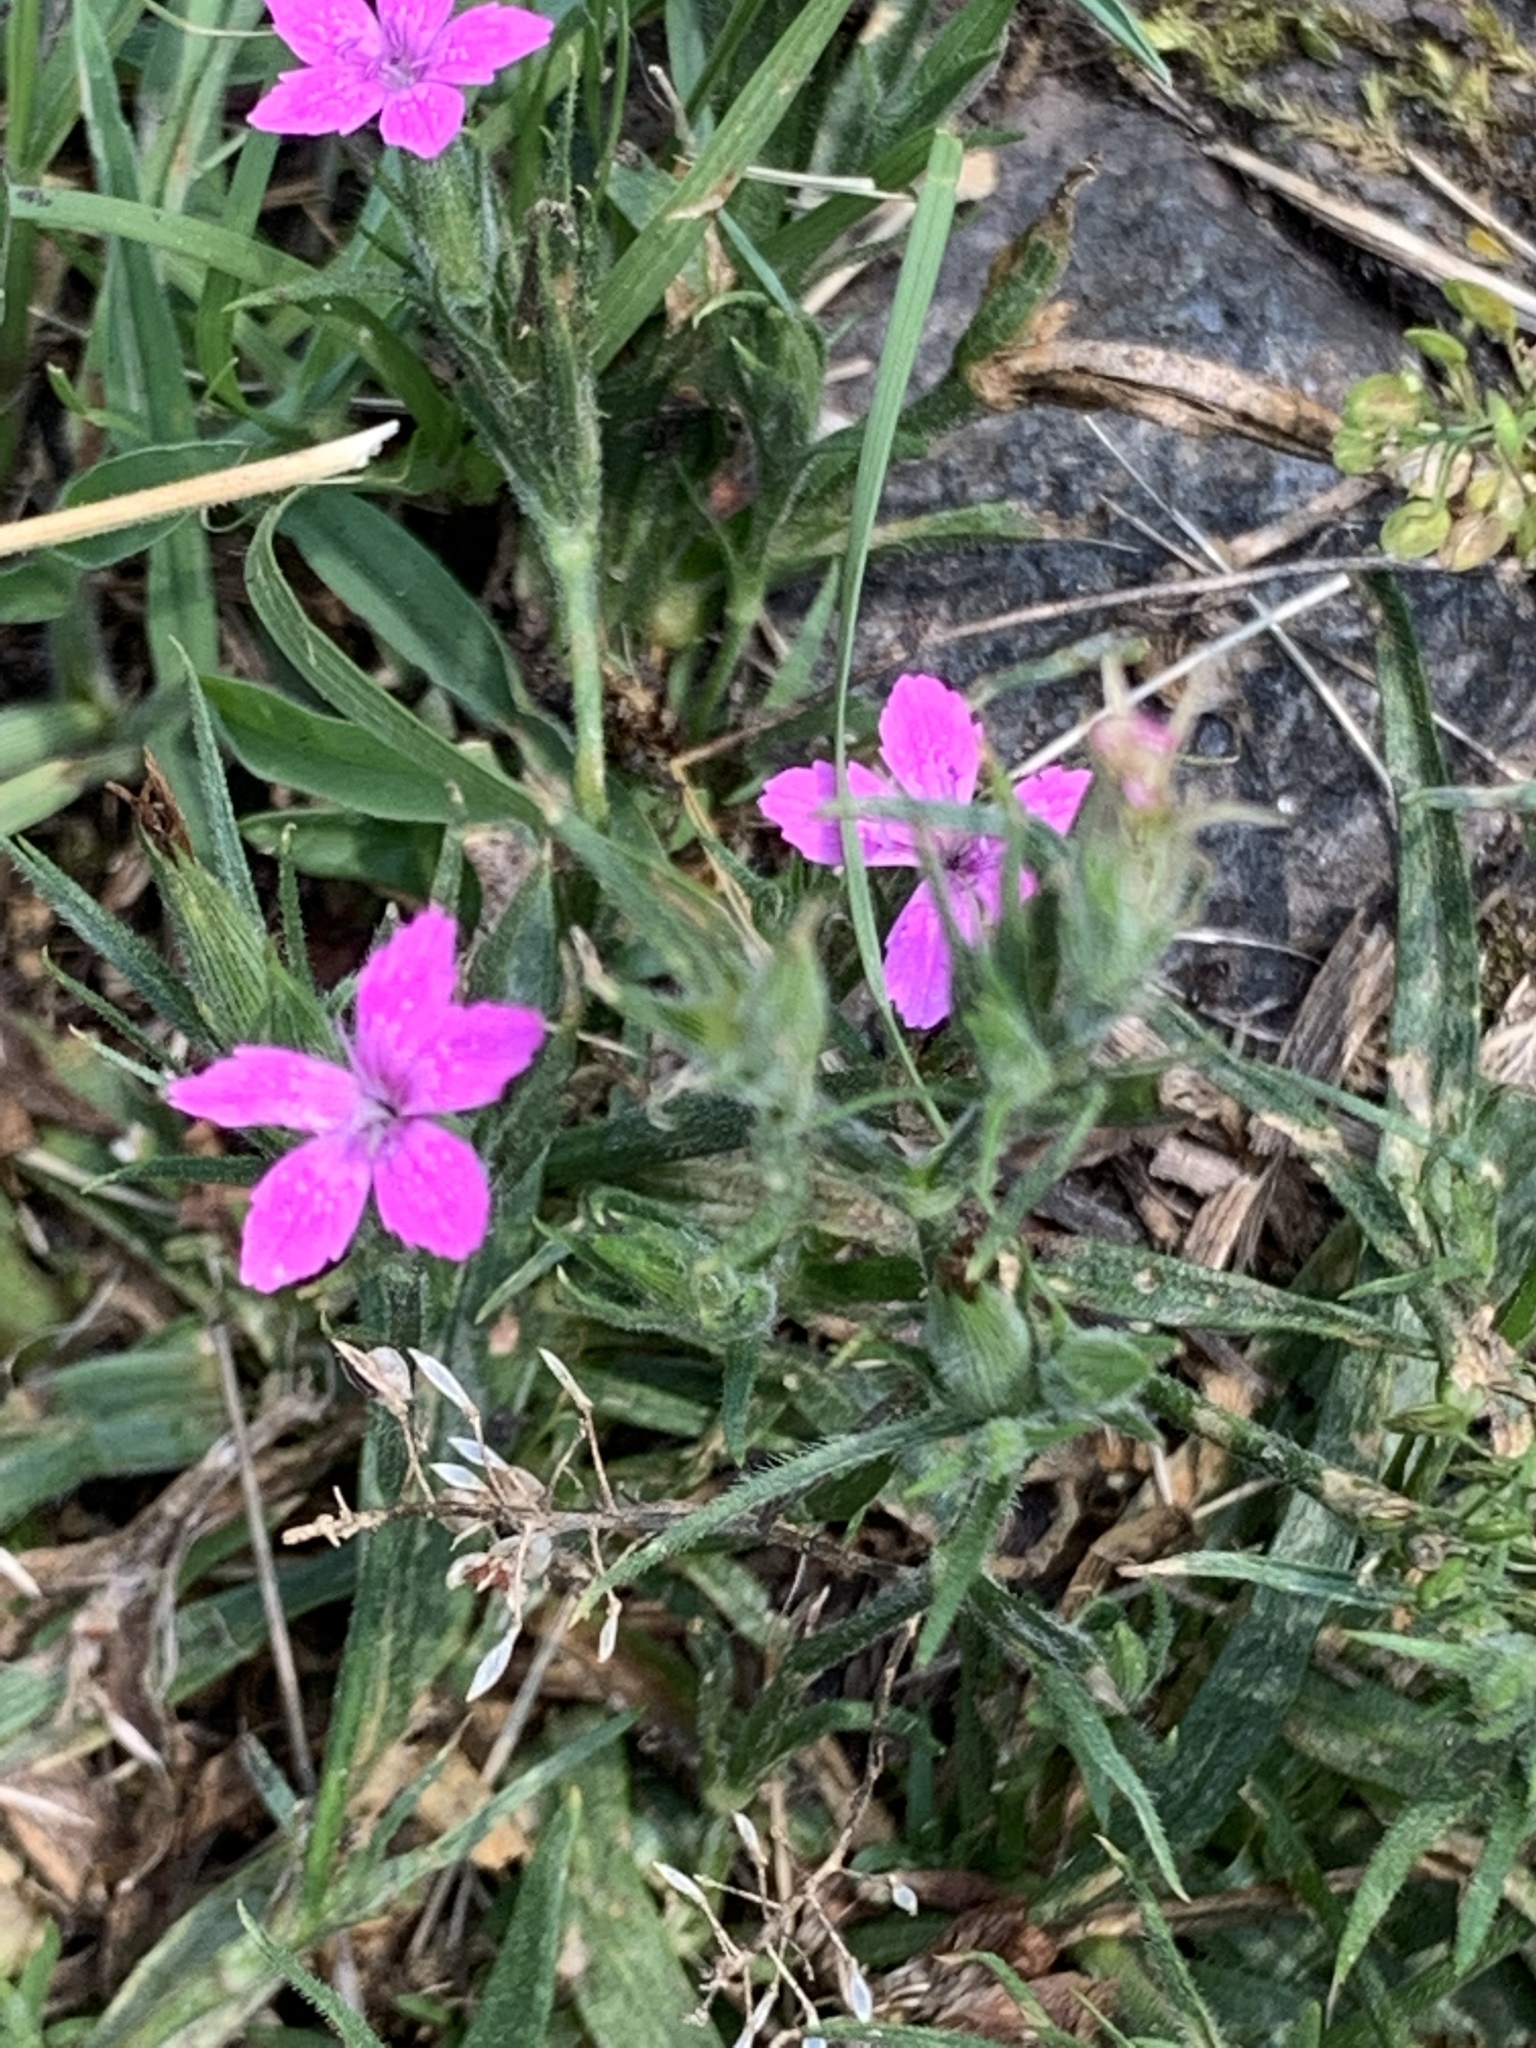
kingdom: Plantae
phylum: Tracheophyta
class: Magnoliopsida
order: Caryophyllales
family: Caryophyllaceae
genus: Dianthus
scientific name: Dianthus armeria
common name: Deptford pink
